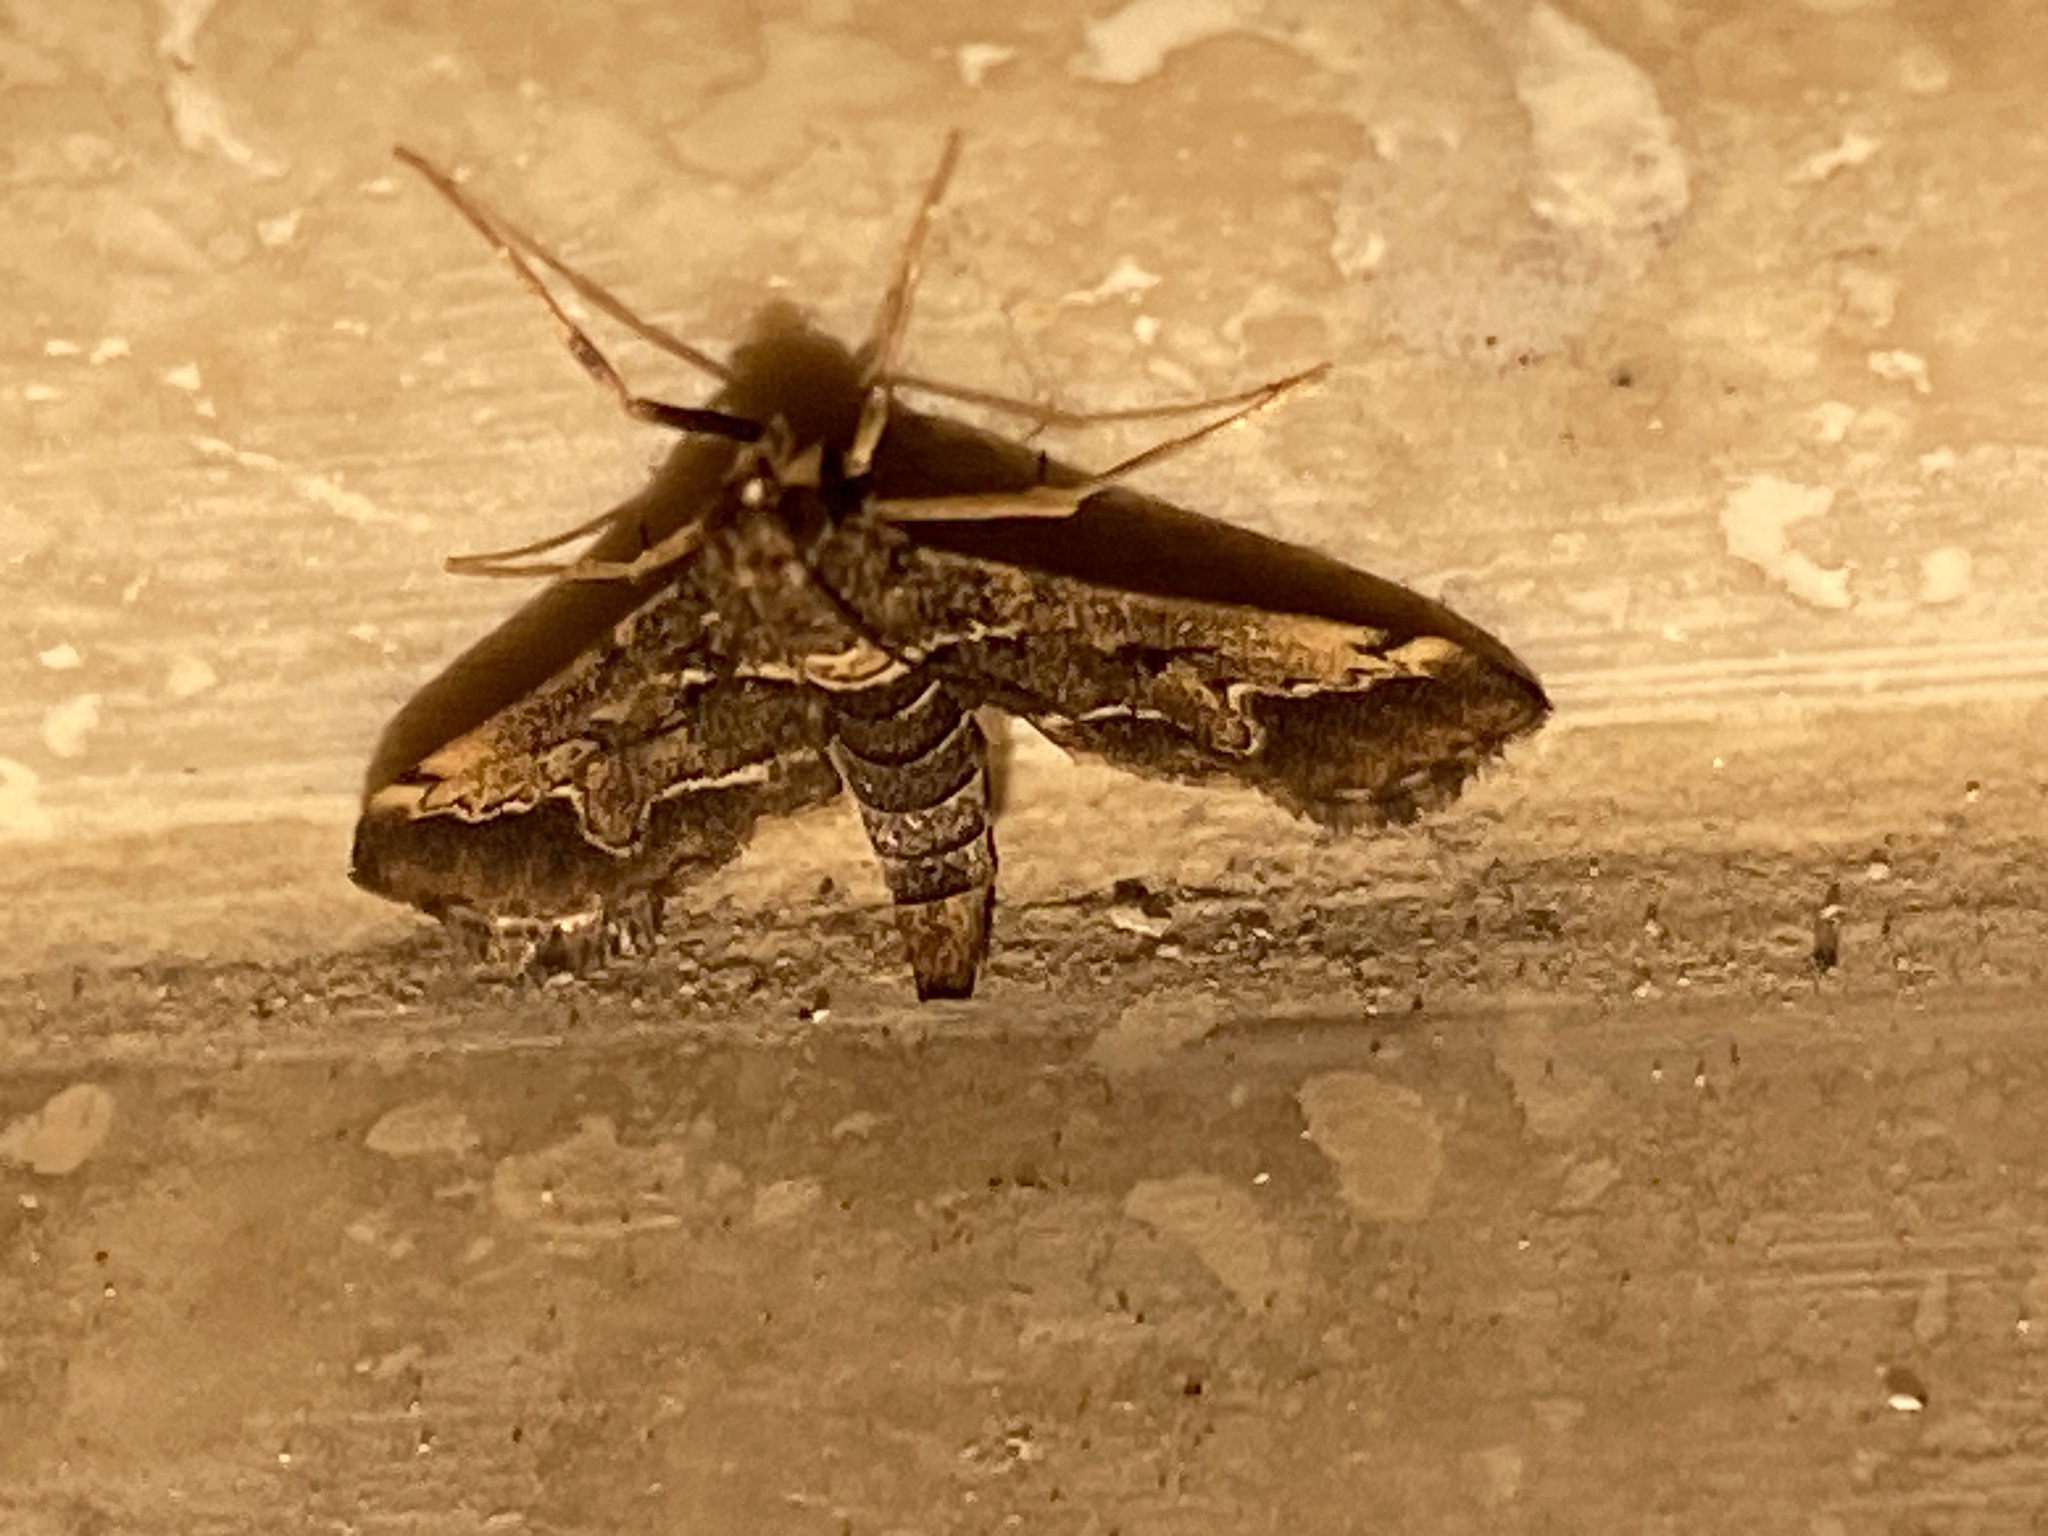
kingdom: Animalia
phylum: Arthropoda
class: Insecta
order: Lepidoptera
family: Crambidae
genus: Duponchelia
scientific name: Duponchelia fovealis
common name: Crambid moth
